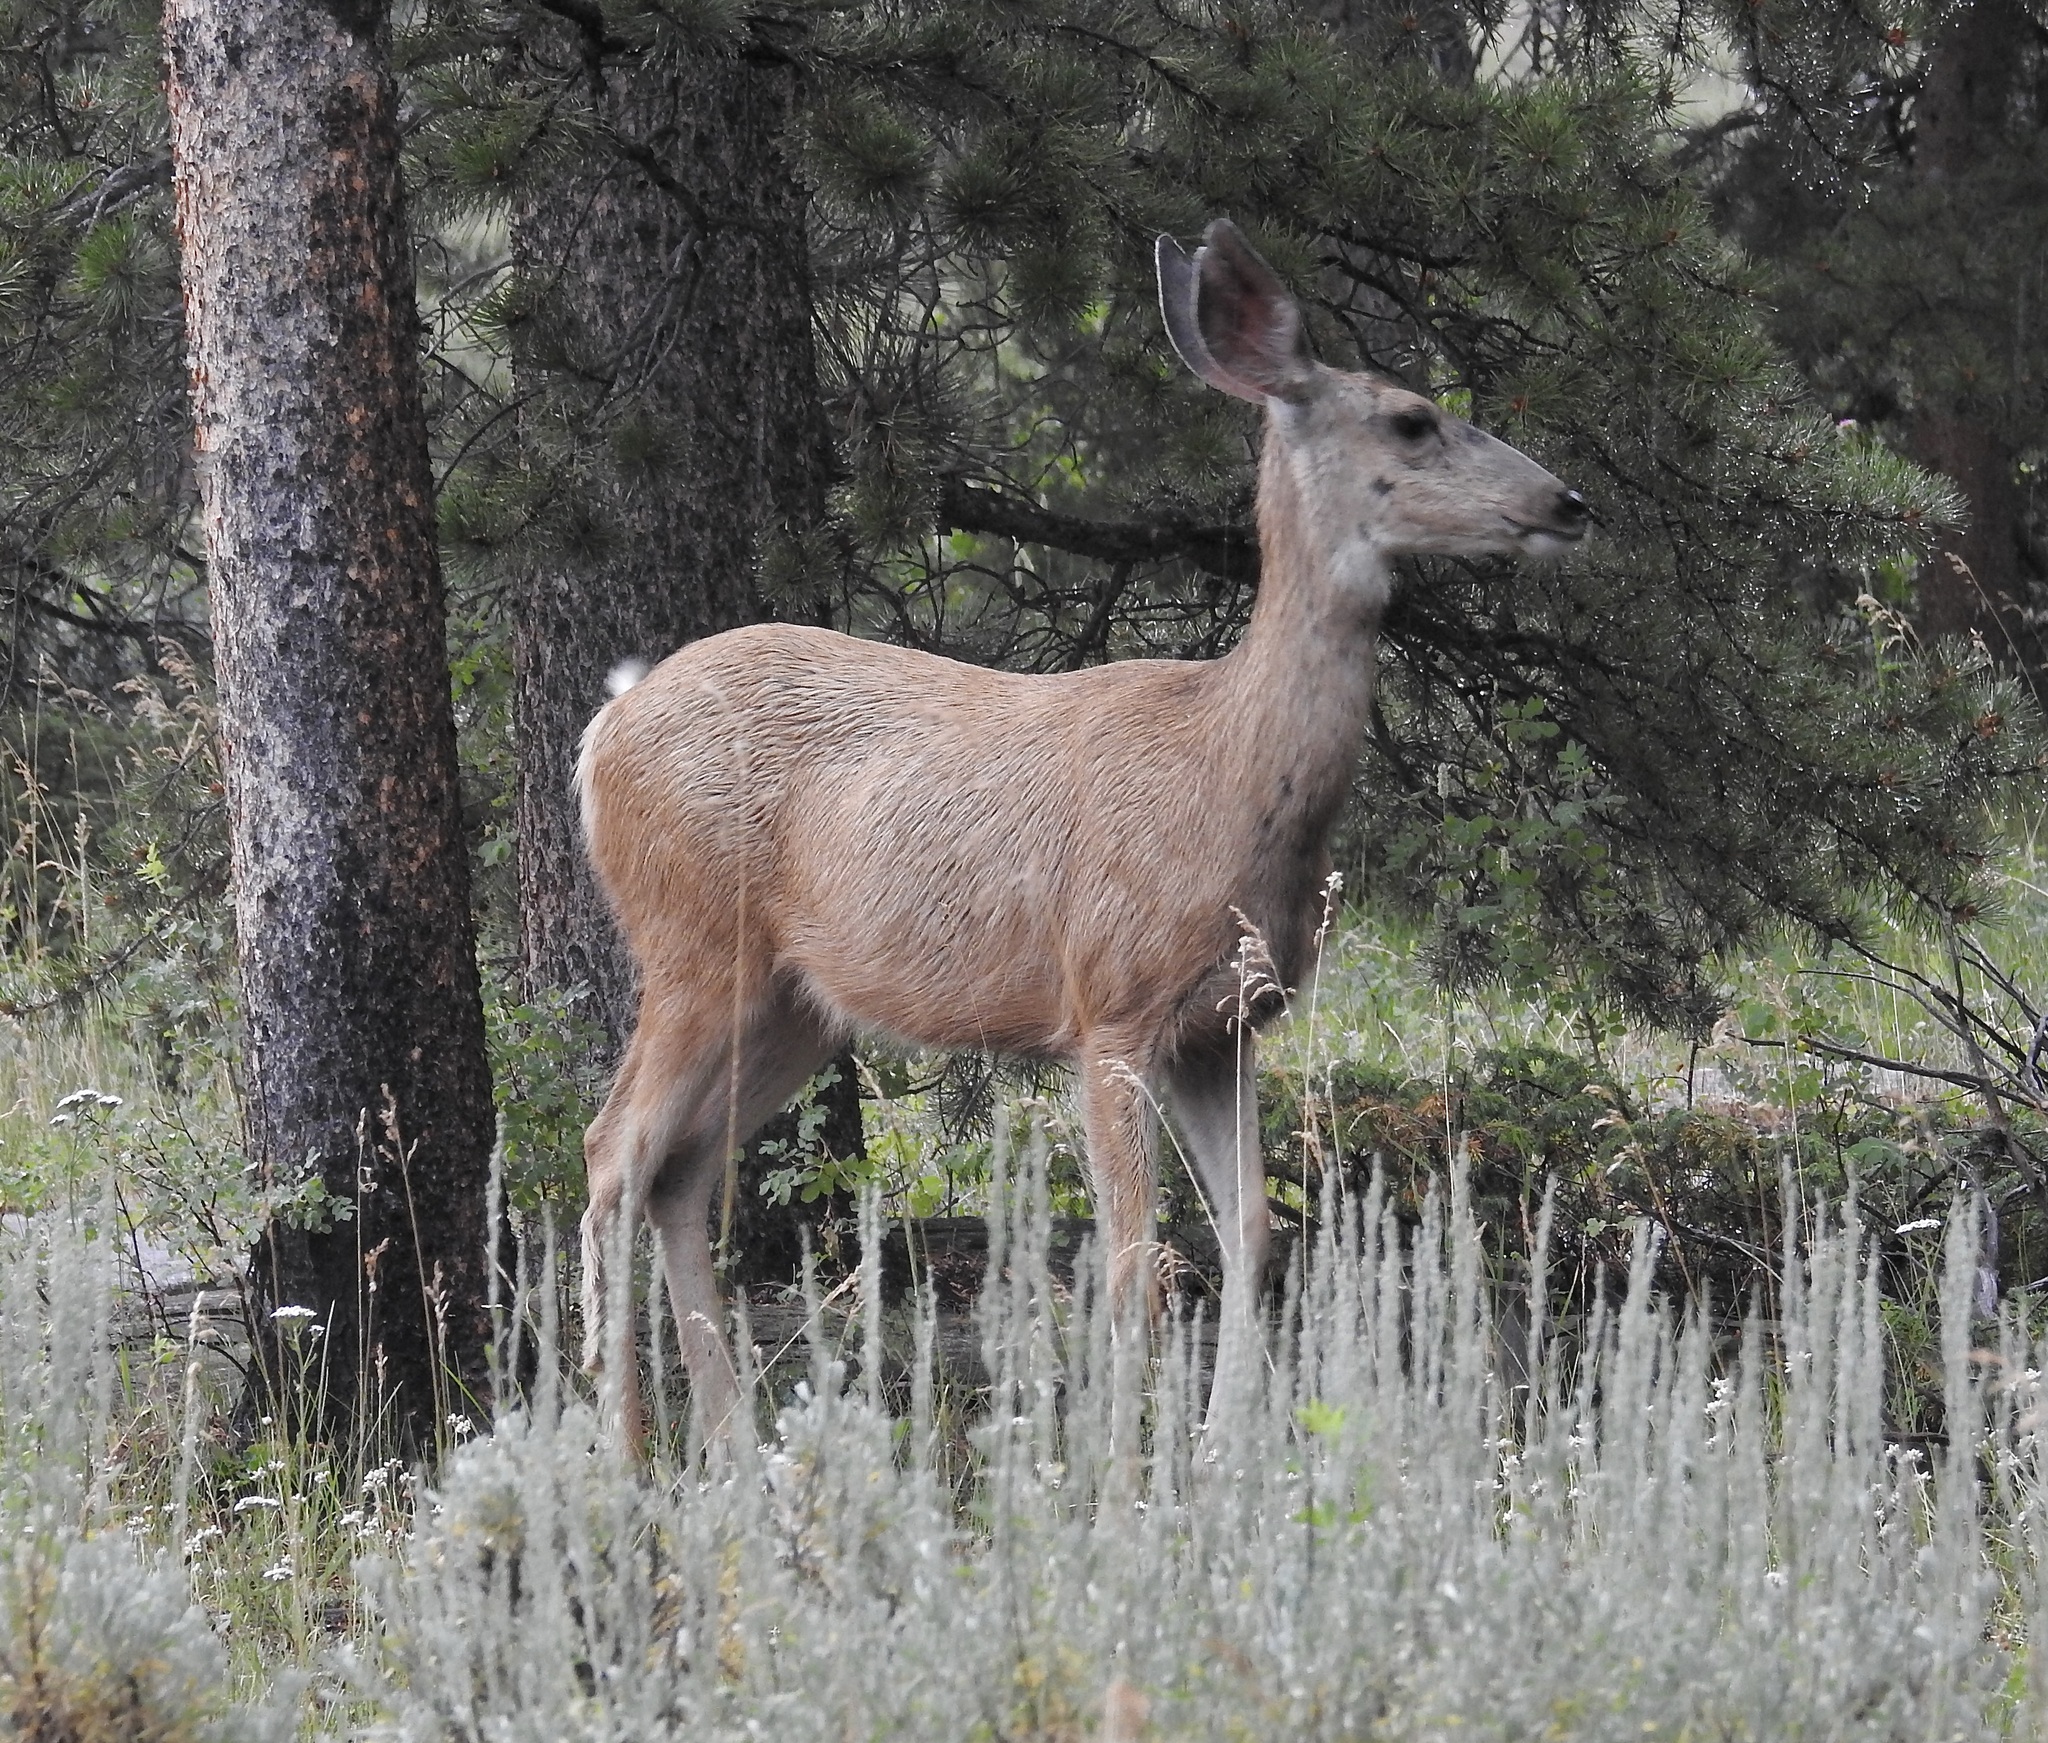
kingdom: Animalia
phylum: Chordata
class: Mammalia
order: Artiodactyla
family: Cervidae
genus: Odocoileus
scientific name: Odocoileus hemionus
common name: Mule deer
